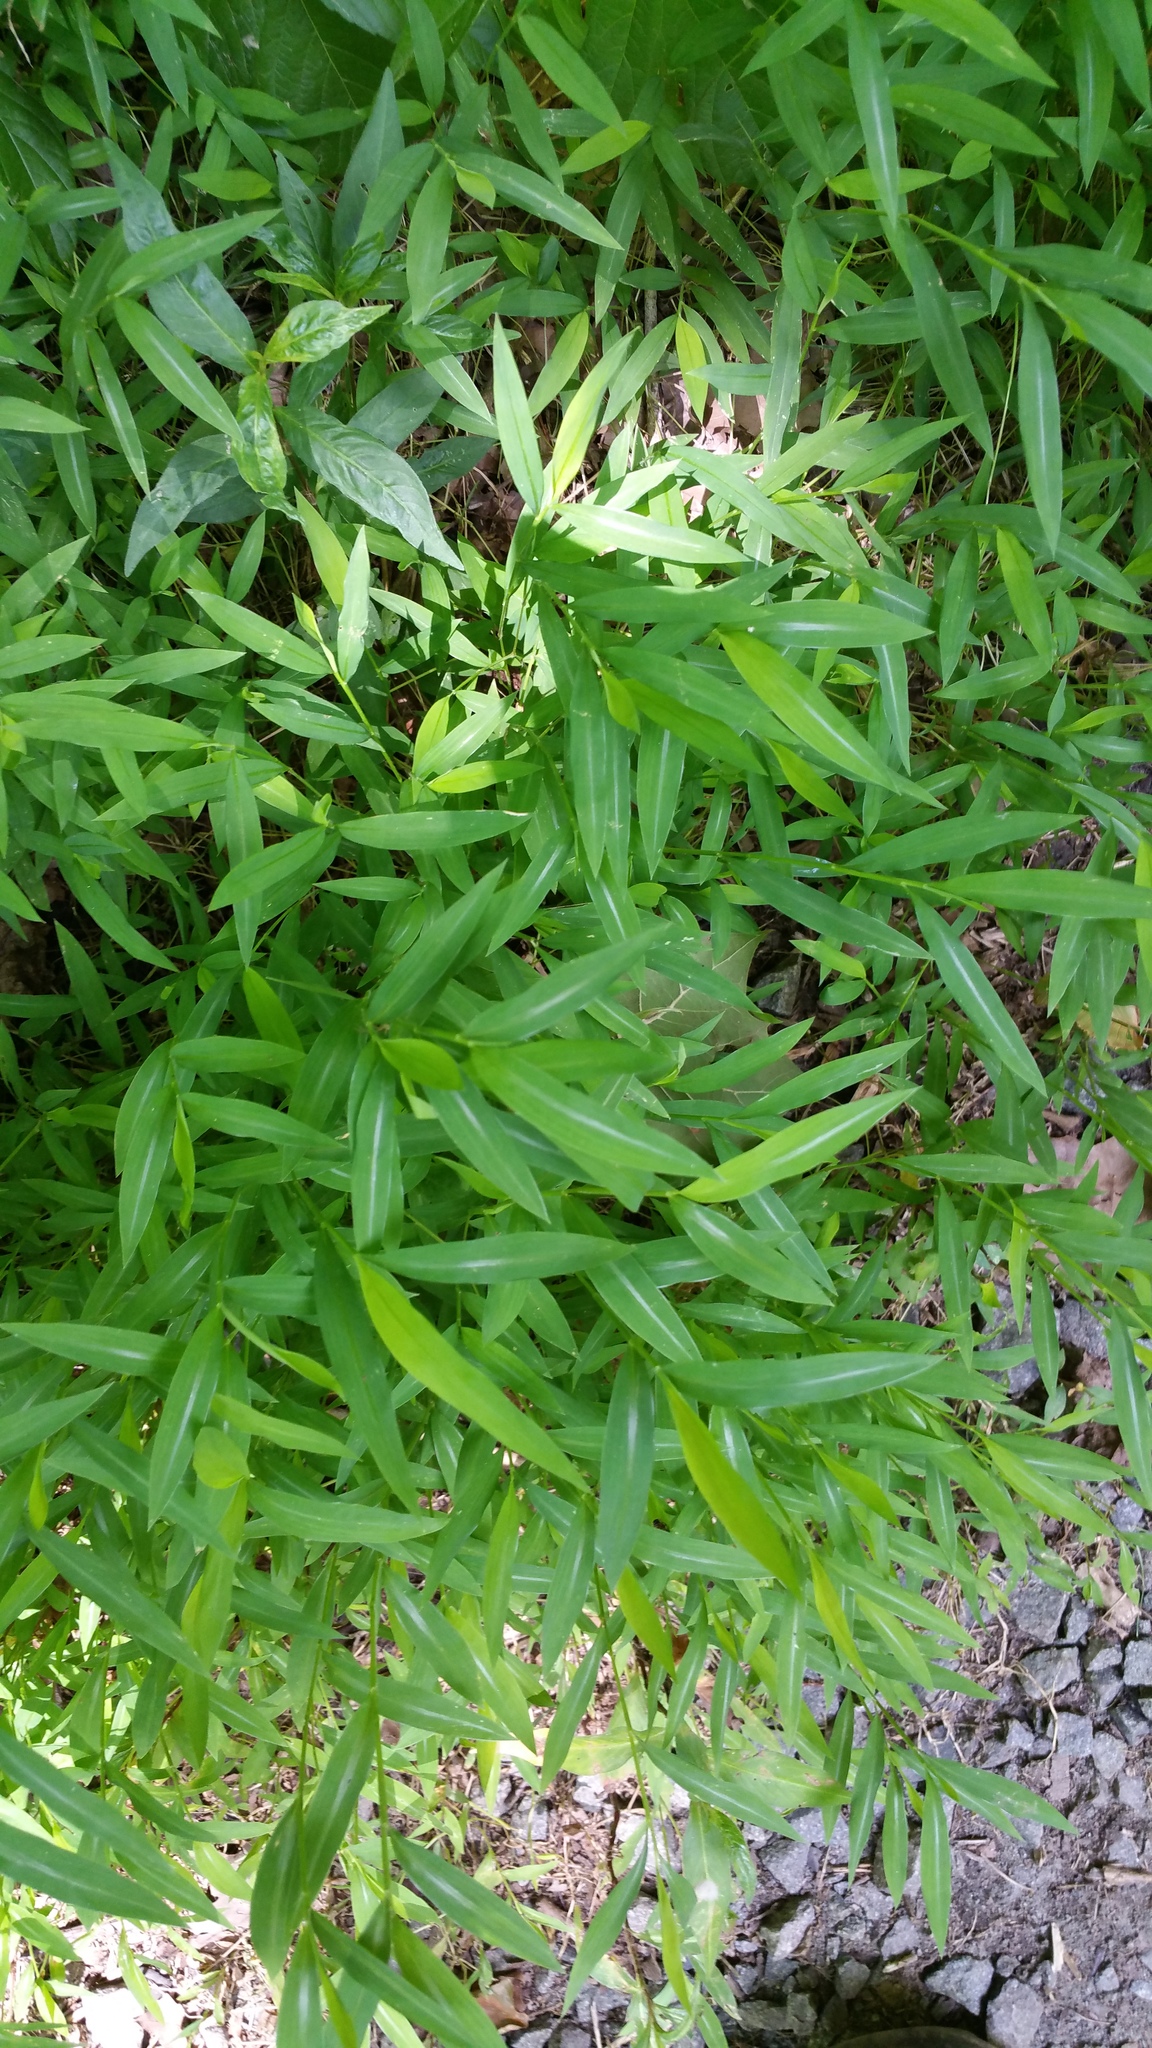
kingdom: Plantae
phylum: Tracheophyta
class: Liliopsida
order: Poales
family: Poaceae
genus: Microstegium
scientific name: Microstegium vimineum
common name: Japanese stiltgrass
